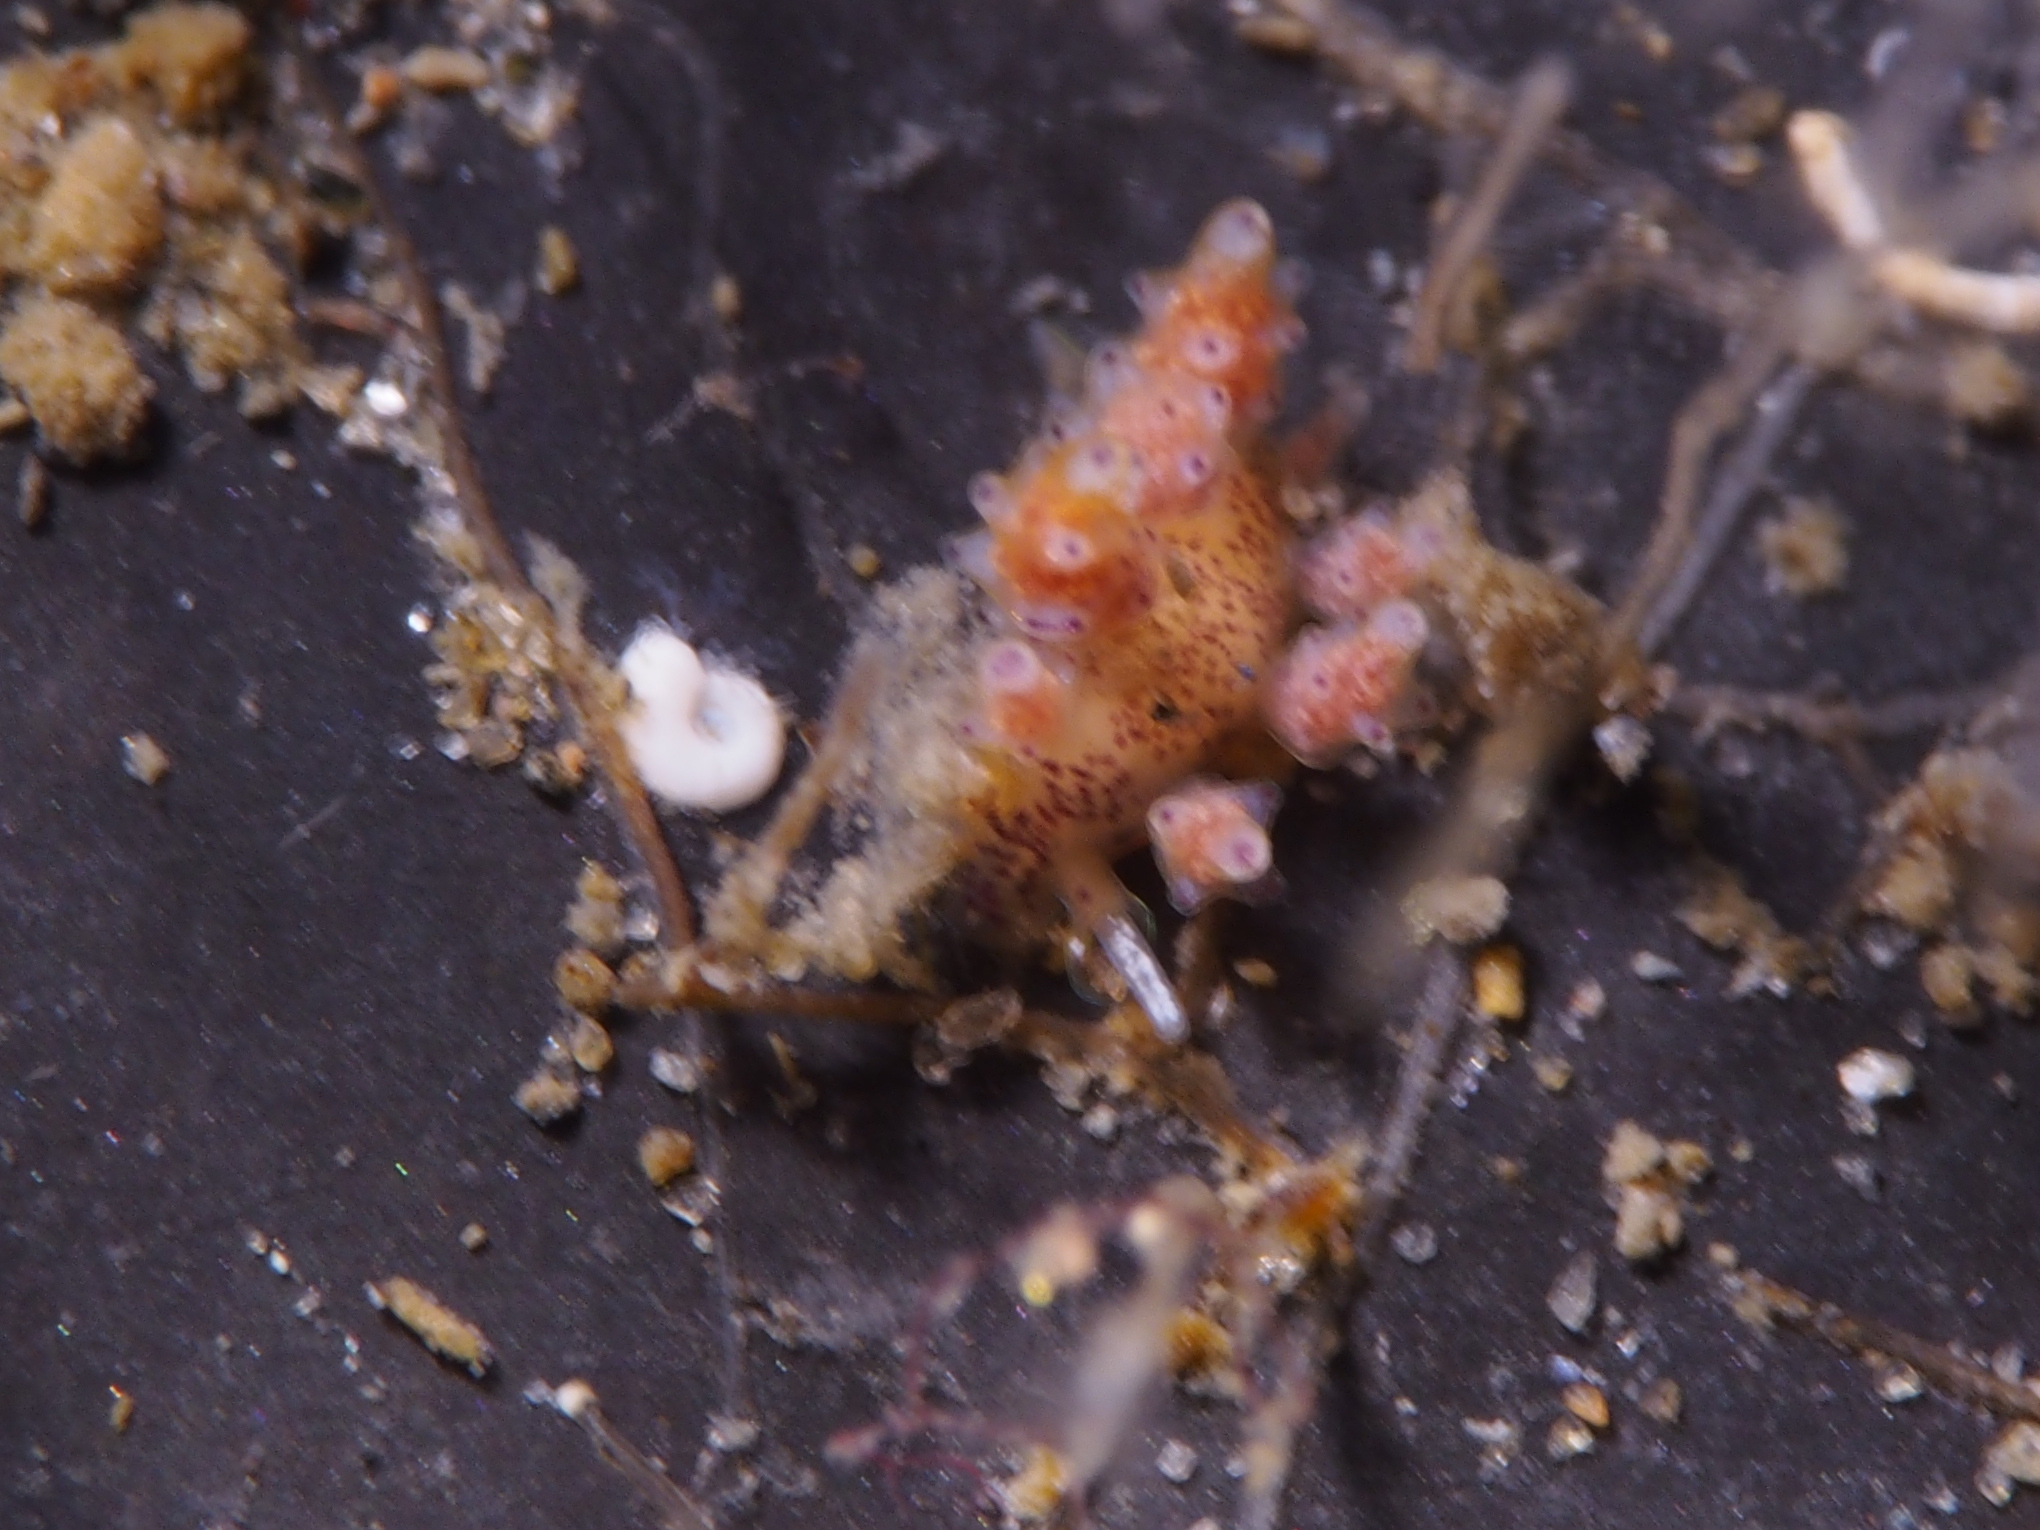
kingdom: Animalia
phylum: Mollusca
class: Gastropoda
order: Nudibranchia
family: Dotidae
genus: Doto
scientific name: Doto maculata
